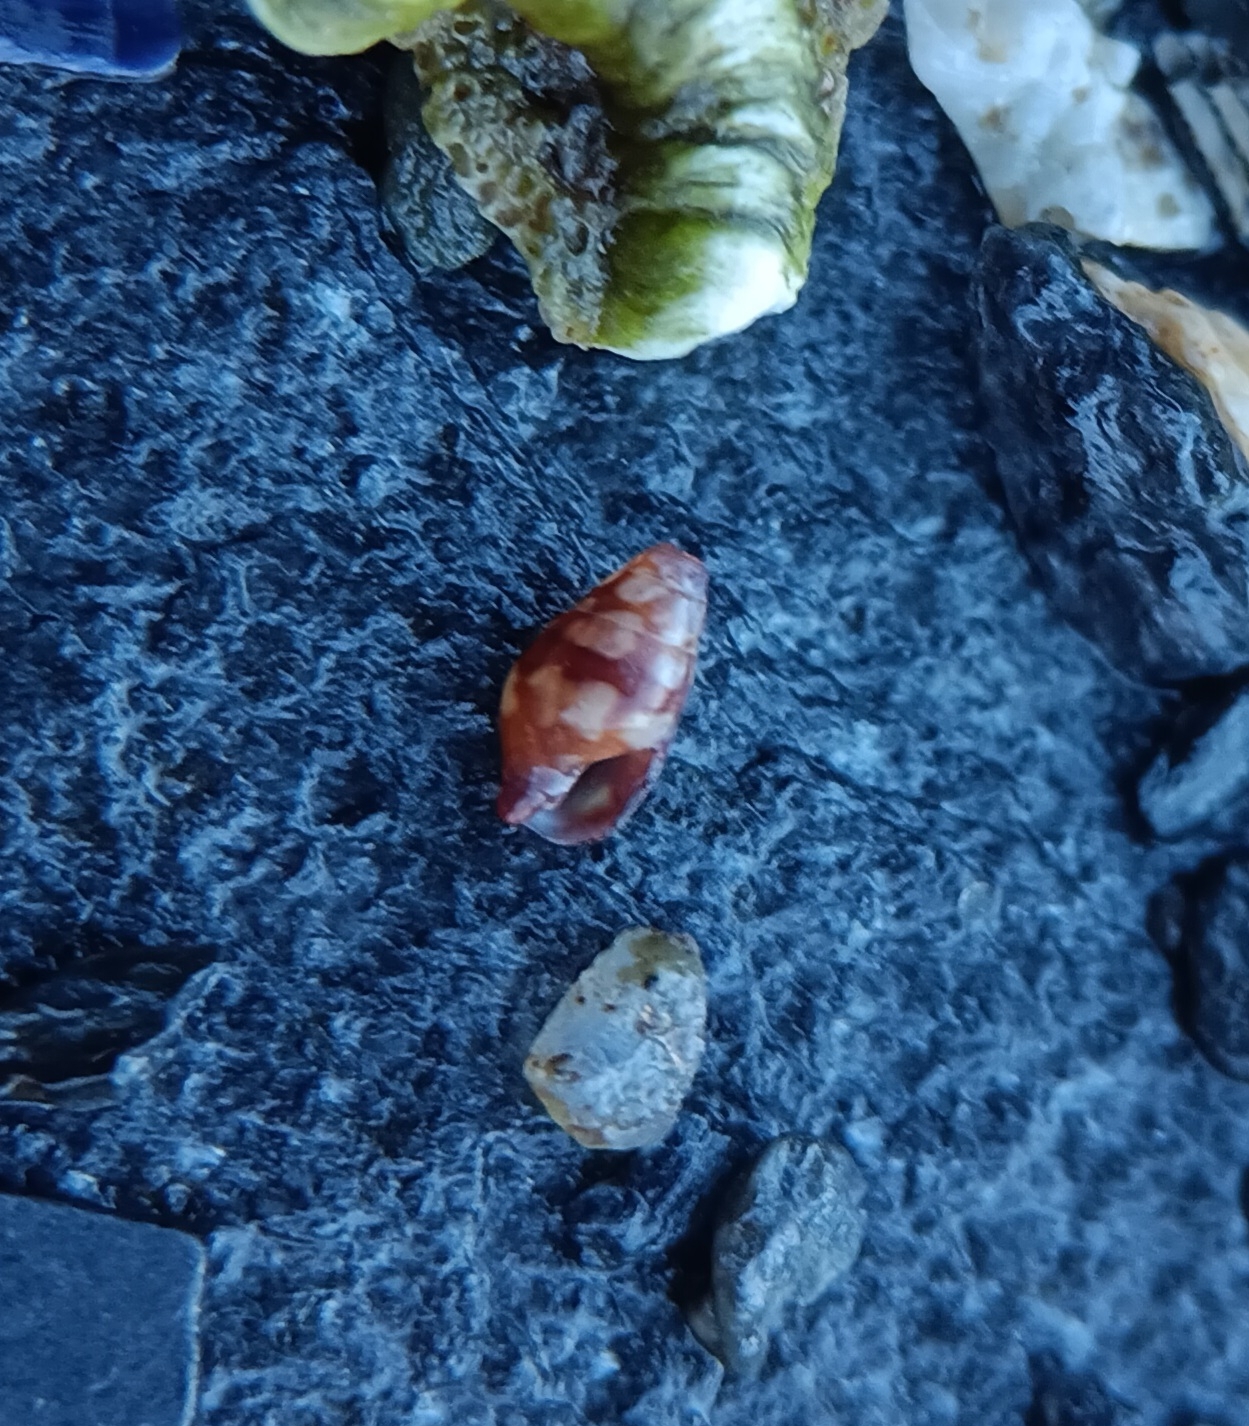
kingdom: Animalia
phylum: Mollusca
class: Gastropoda
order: Neogastropoda
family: Columbellidae
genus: Astyris
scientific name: Astyris lunata
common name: Lunar dovesnail
